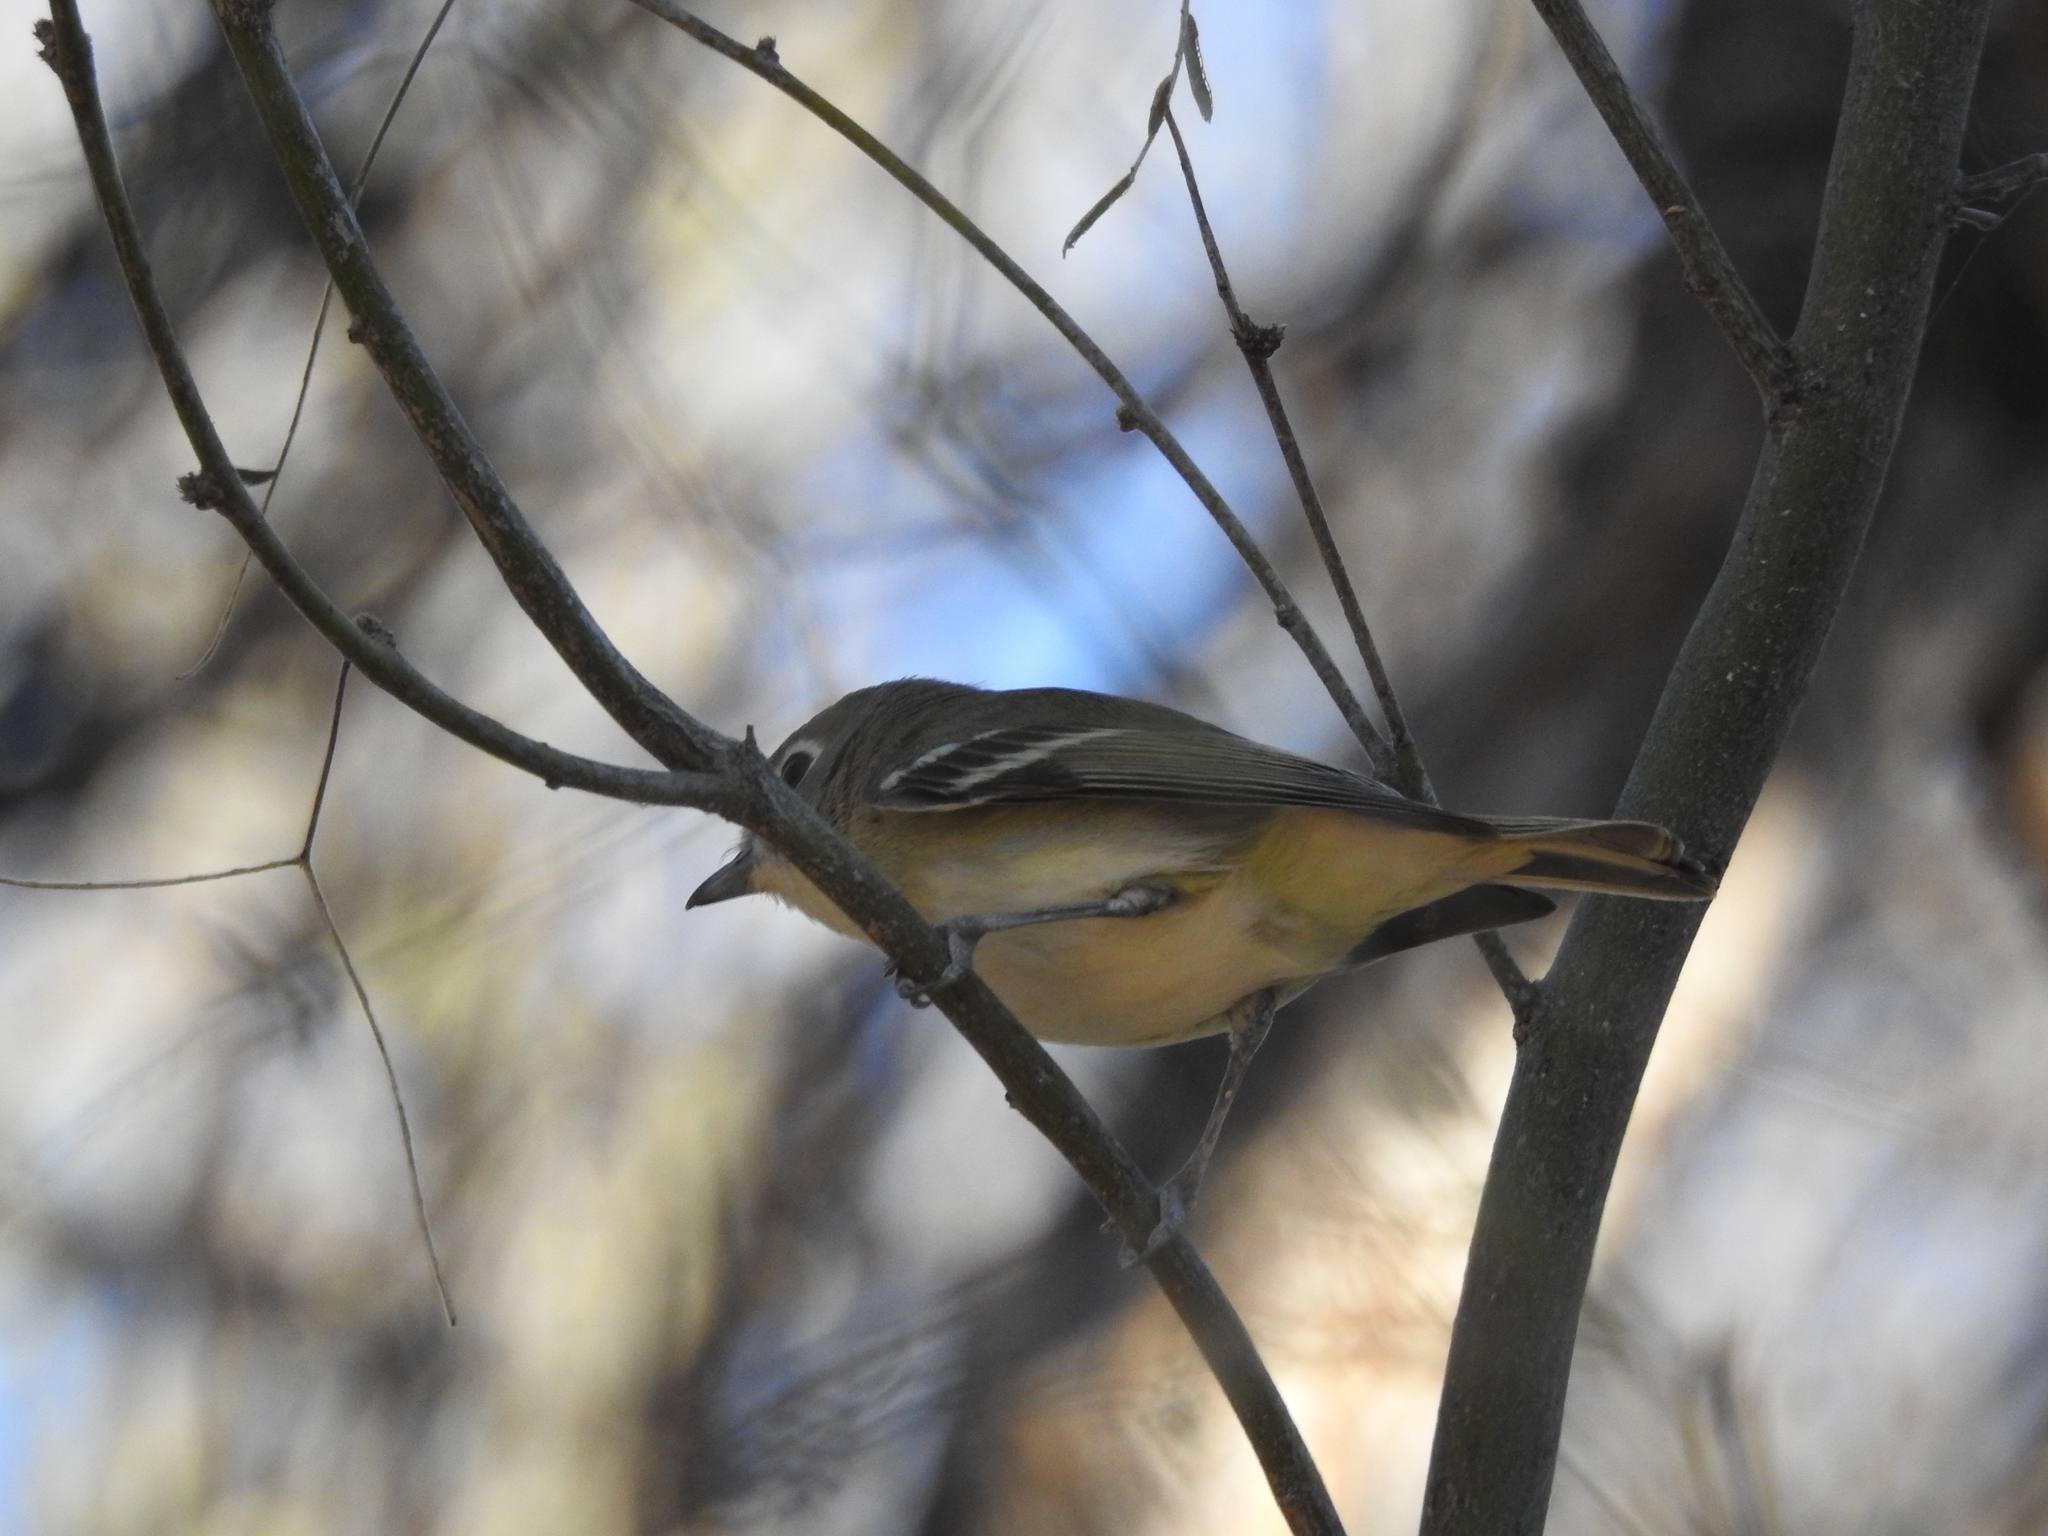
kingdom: Animalia
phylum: Chordata
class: Aves
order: Passeriformes
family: Vireonidae
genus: Vireo
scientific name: Vireo cassinii
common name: Cassin's vireo
